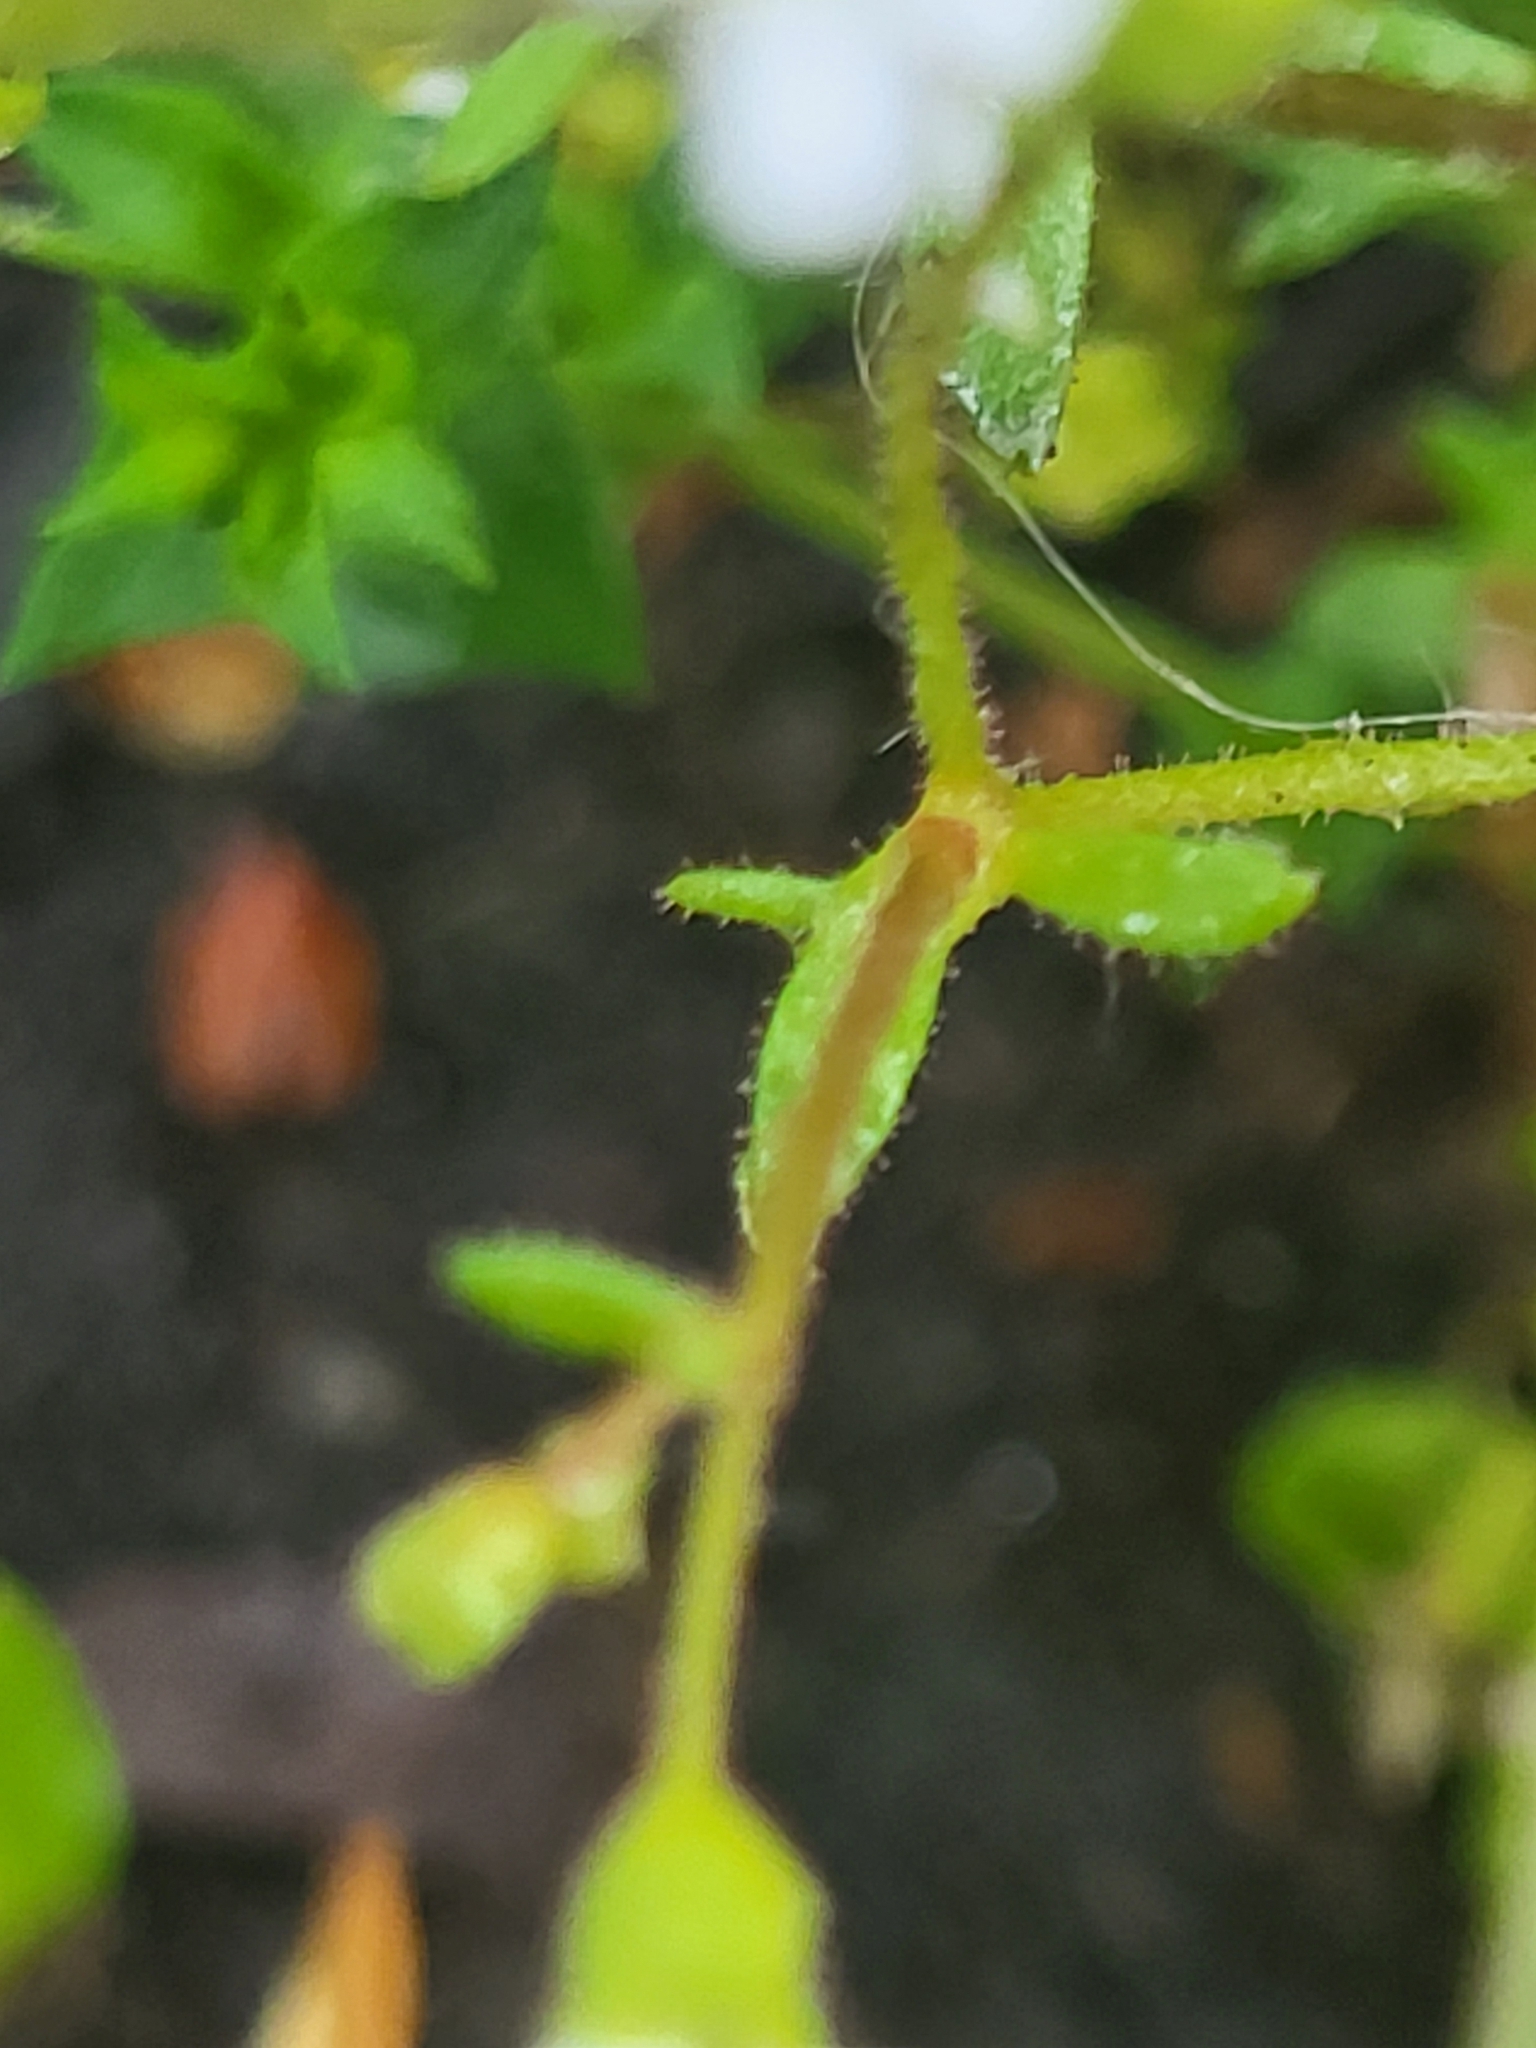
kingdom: Plantae
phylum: Tracheophyta
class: Magnoliopsida
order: Saxifragales
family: Saxifragaceae
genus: Saxifraga
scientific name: Saxifraga tridactylites
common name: Rue-leaved saxifrage
